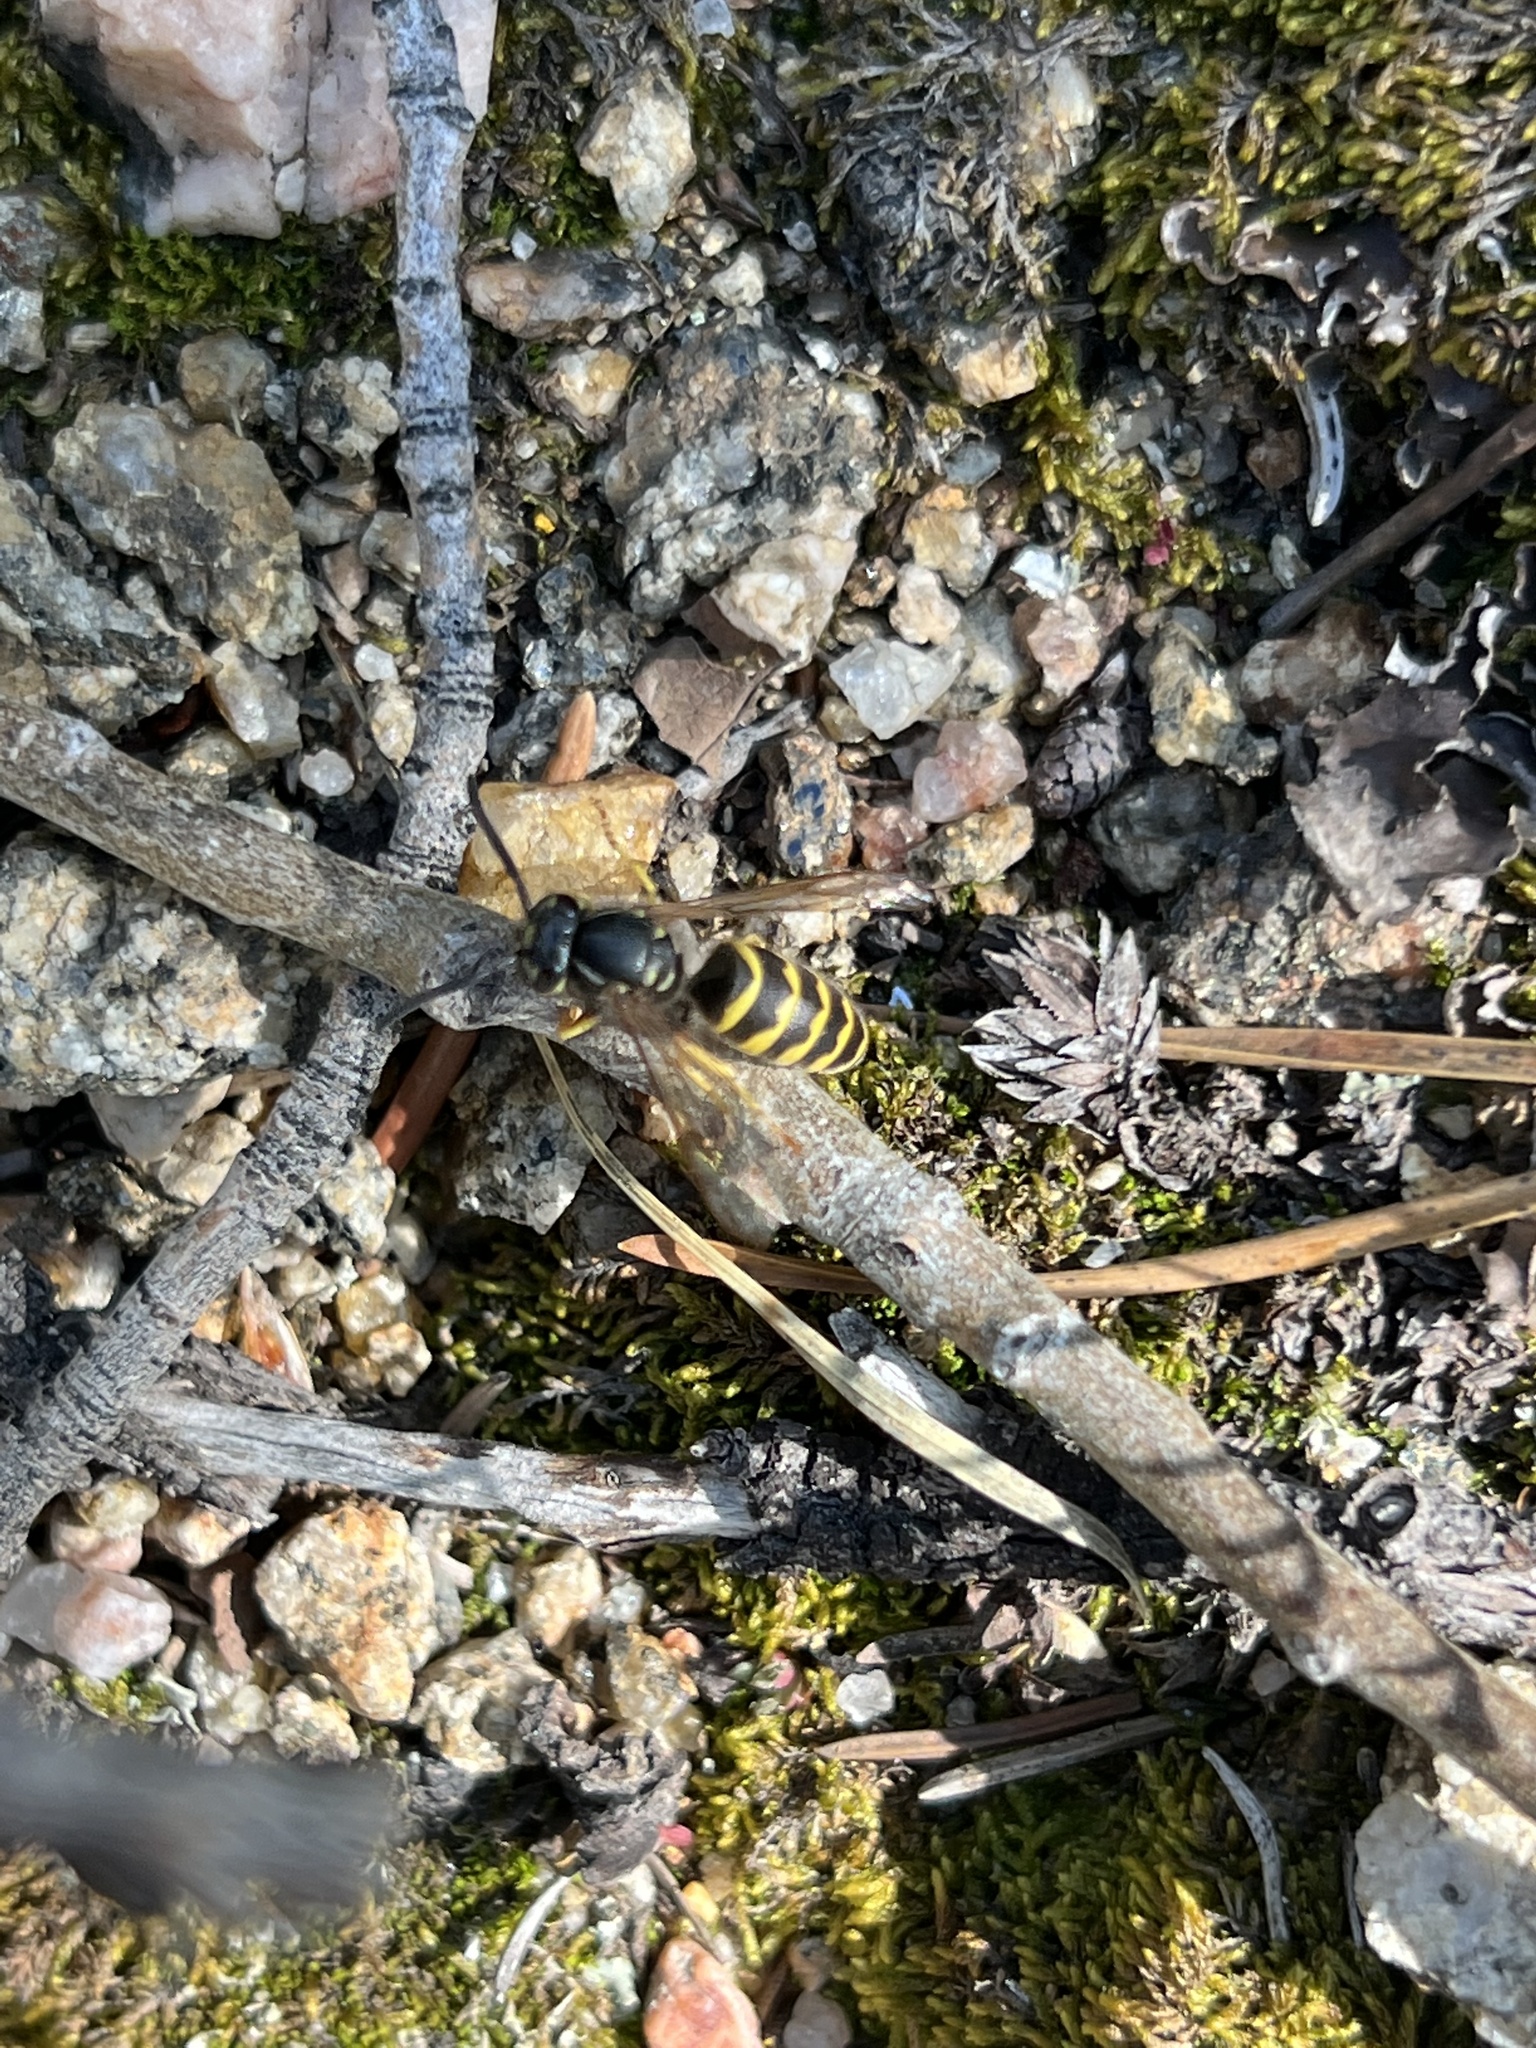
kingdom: Animalia
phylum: Arthropoda
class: Insecta
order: Hymenoptera
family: Vespidae
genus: Vespula
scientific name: Vespula alascensis
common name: Alaska yellowjacket
